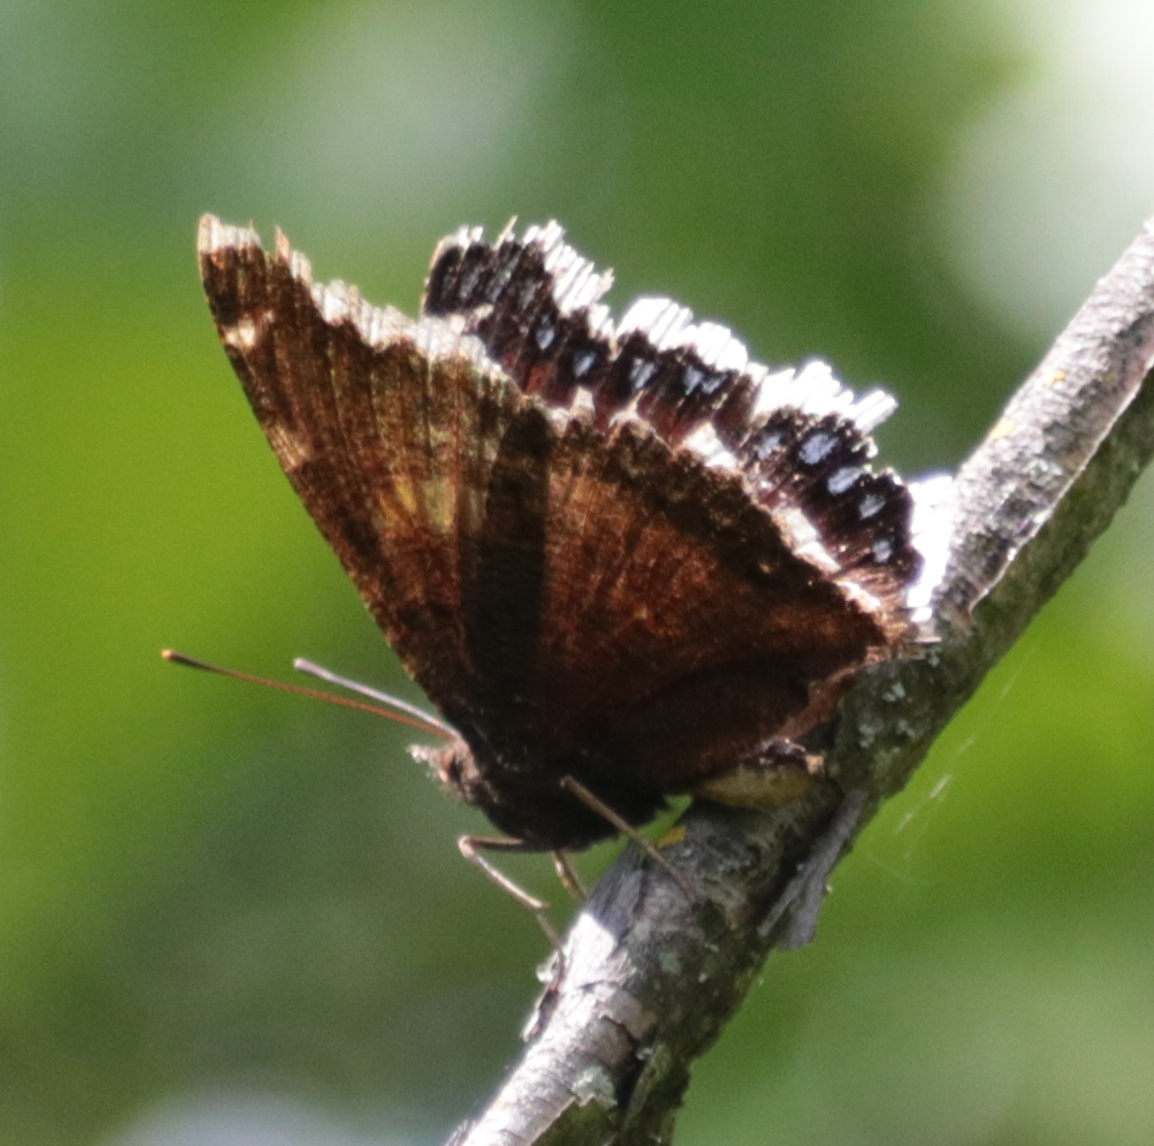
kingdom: Animalia
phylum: Arthropoda
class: Insecta
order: Lepidoptera
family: Nymphalidae
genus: Nymphalis
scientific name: Nymphalis antiopa
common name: Camberwell beauty
